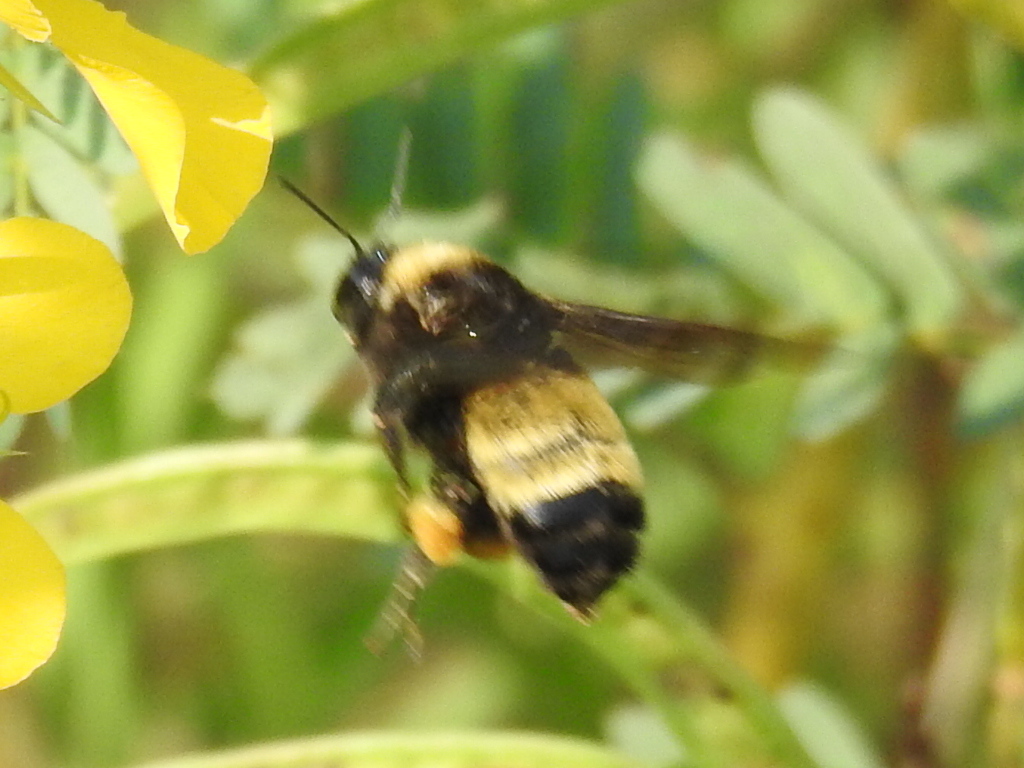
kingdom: Animalia
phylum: Arthropoda
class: Insecta
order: Hymenoptera
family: Apidae
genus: Bombus
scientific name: Bombus pensylvanicus
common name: Bumble bee
